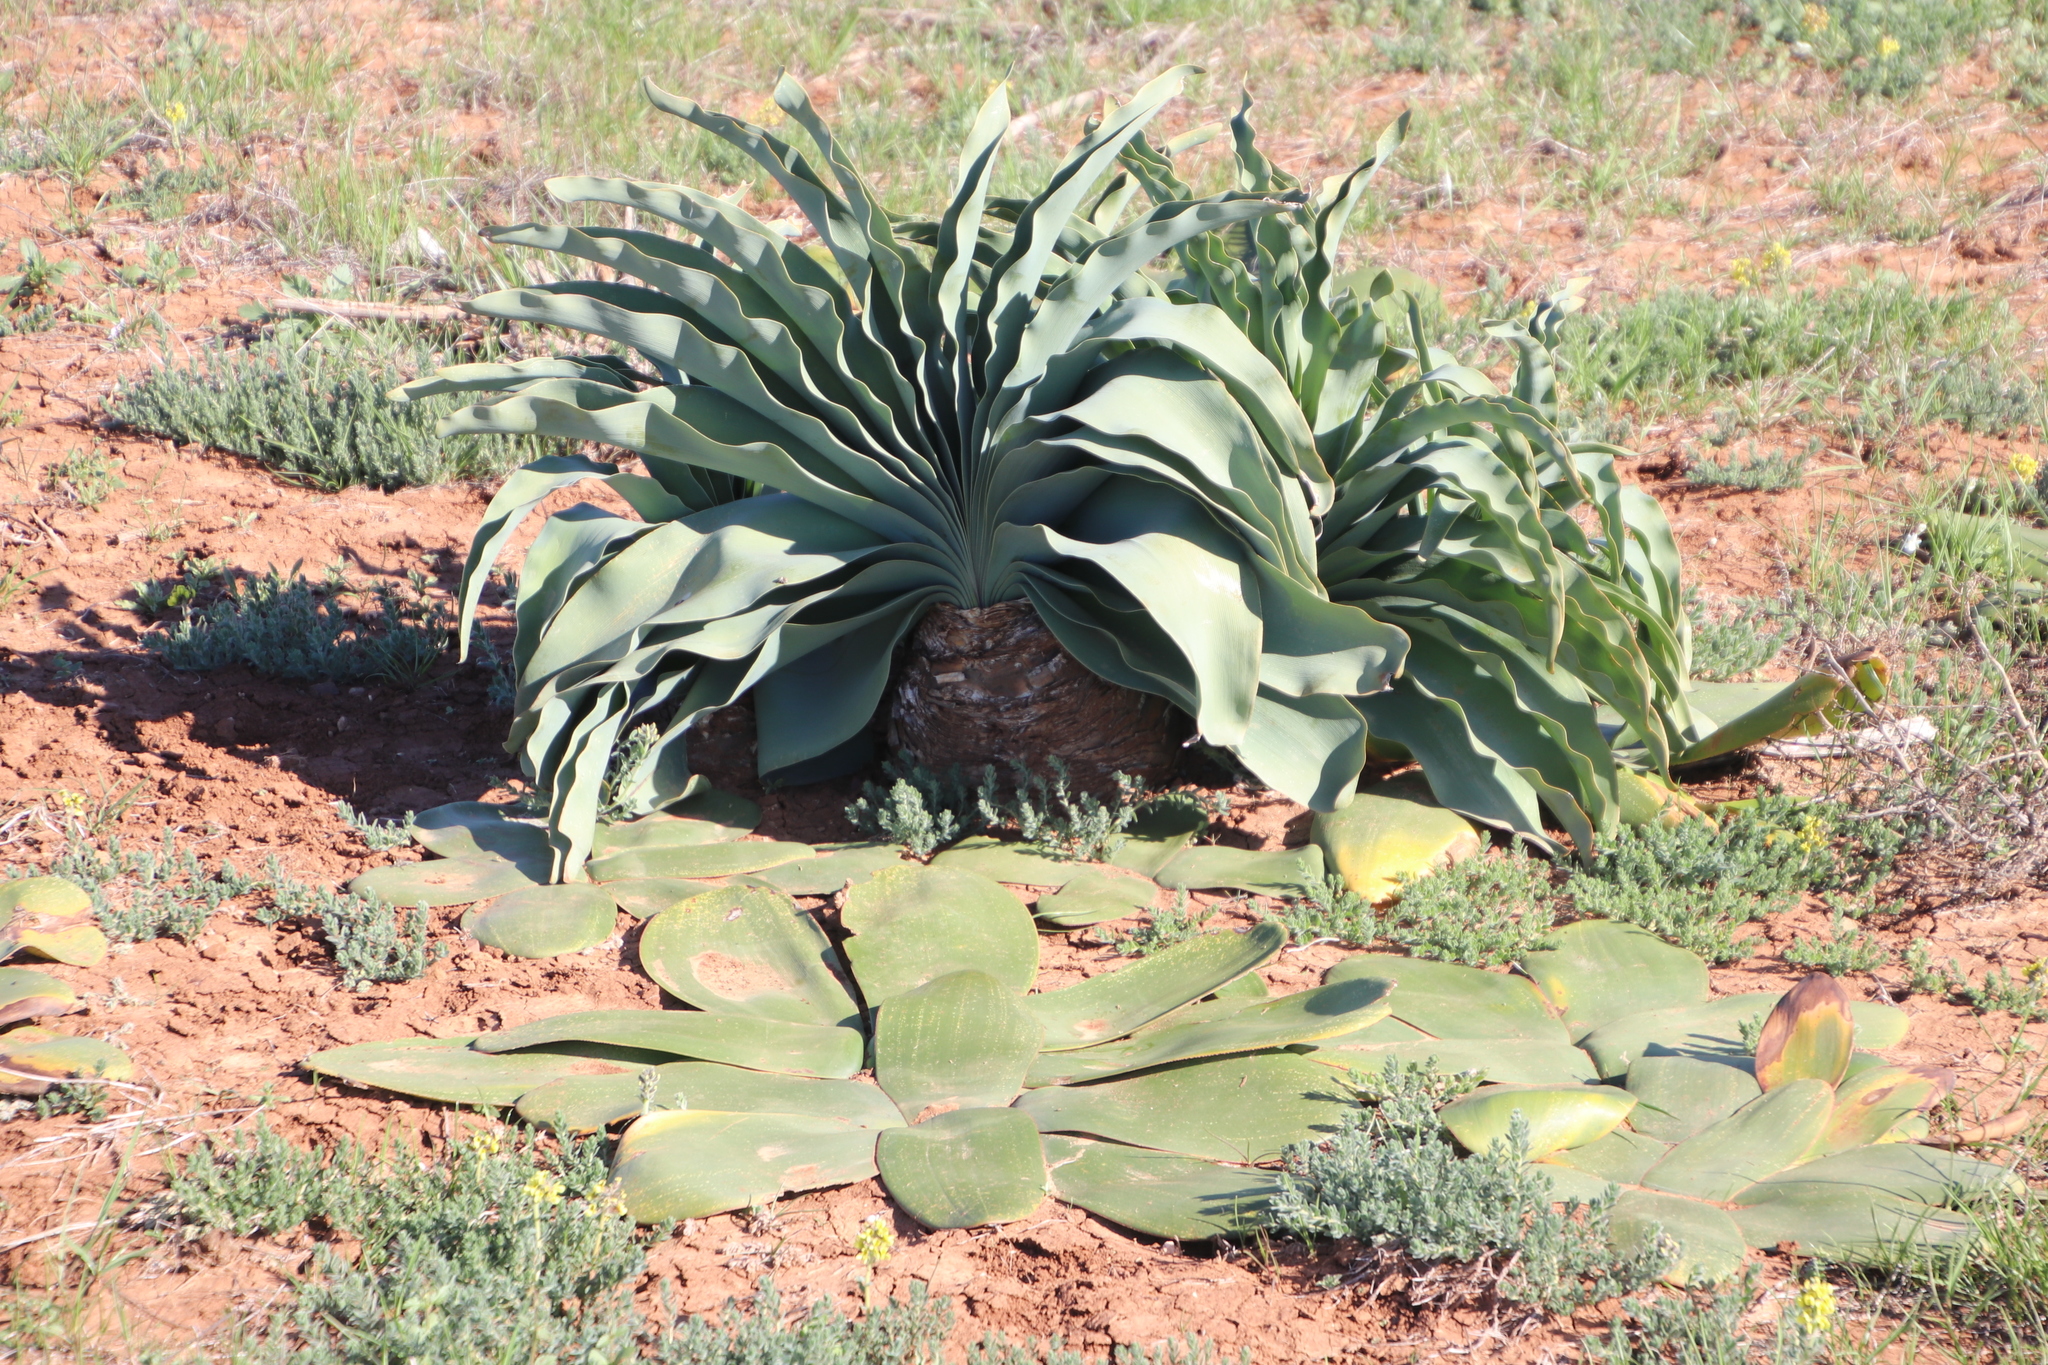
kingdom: Plantae
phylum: Tracheophyta
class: Liliopsida
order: Asparagales
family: Amaryllidaceae
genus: Boophone
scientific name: Boophone haemanthoides
